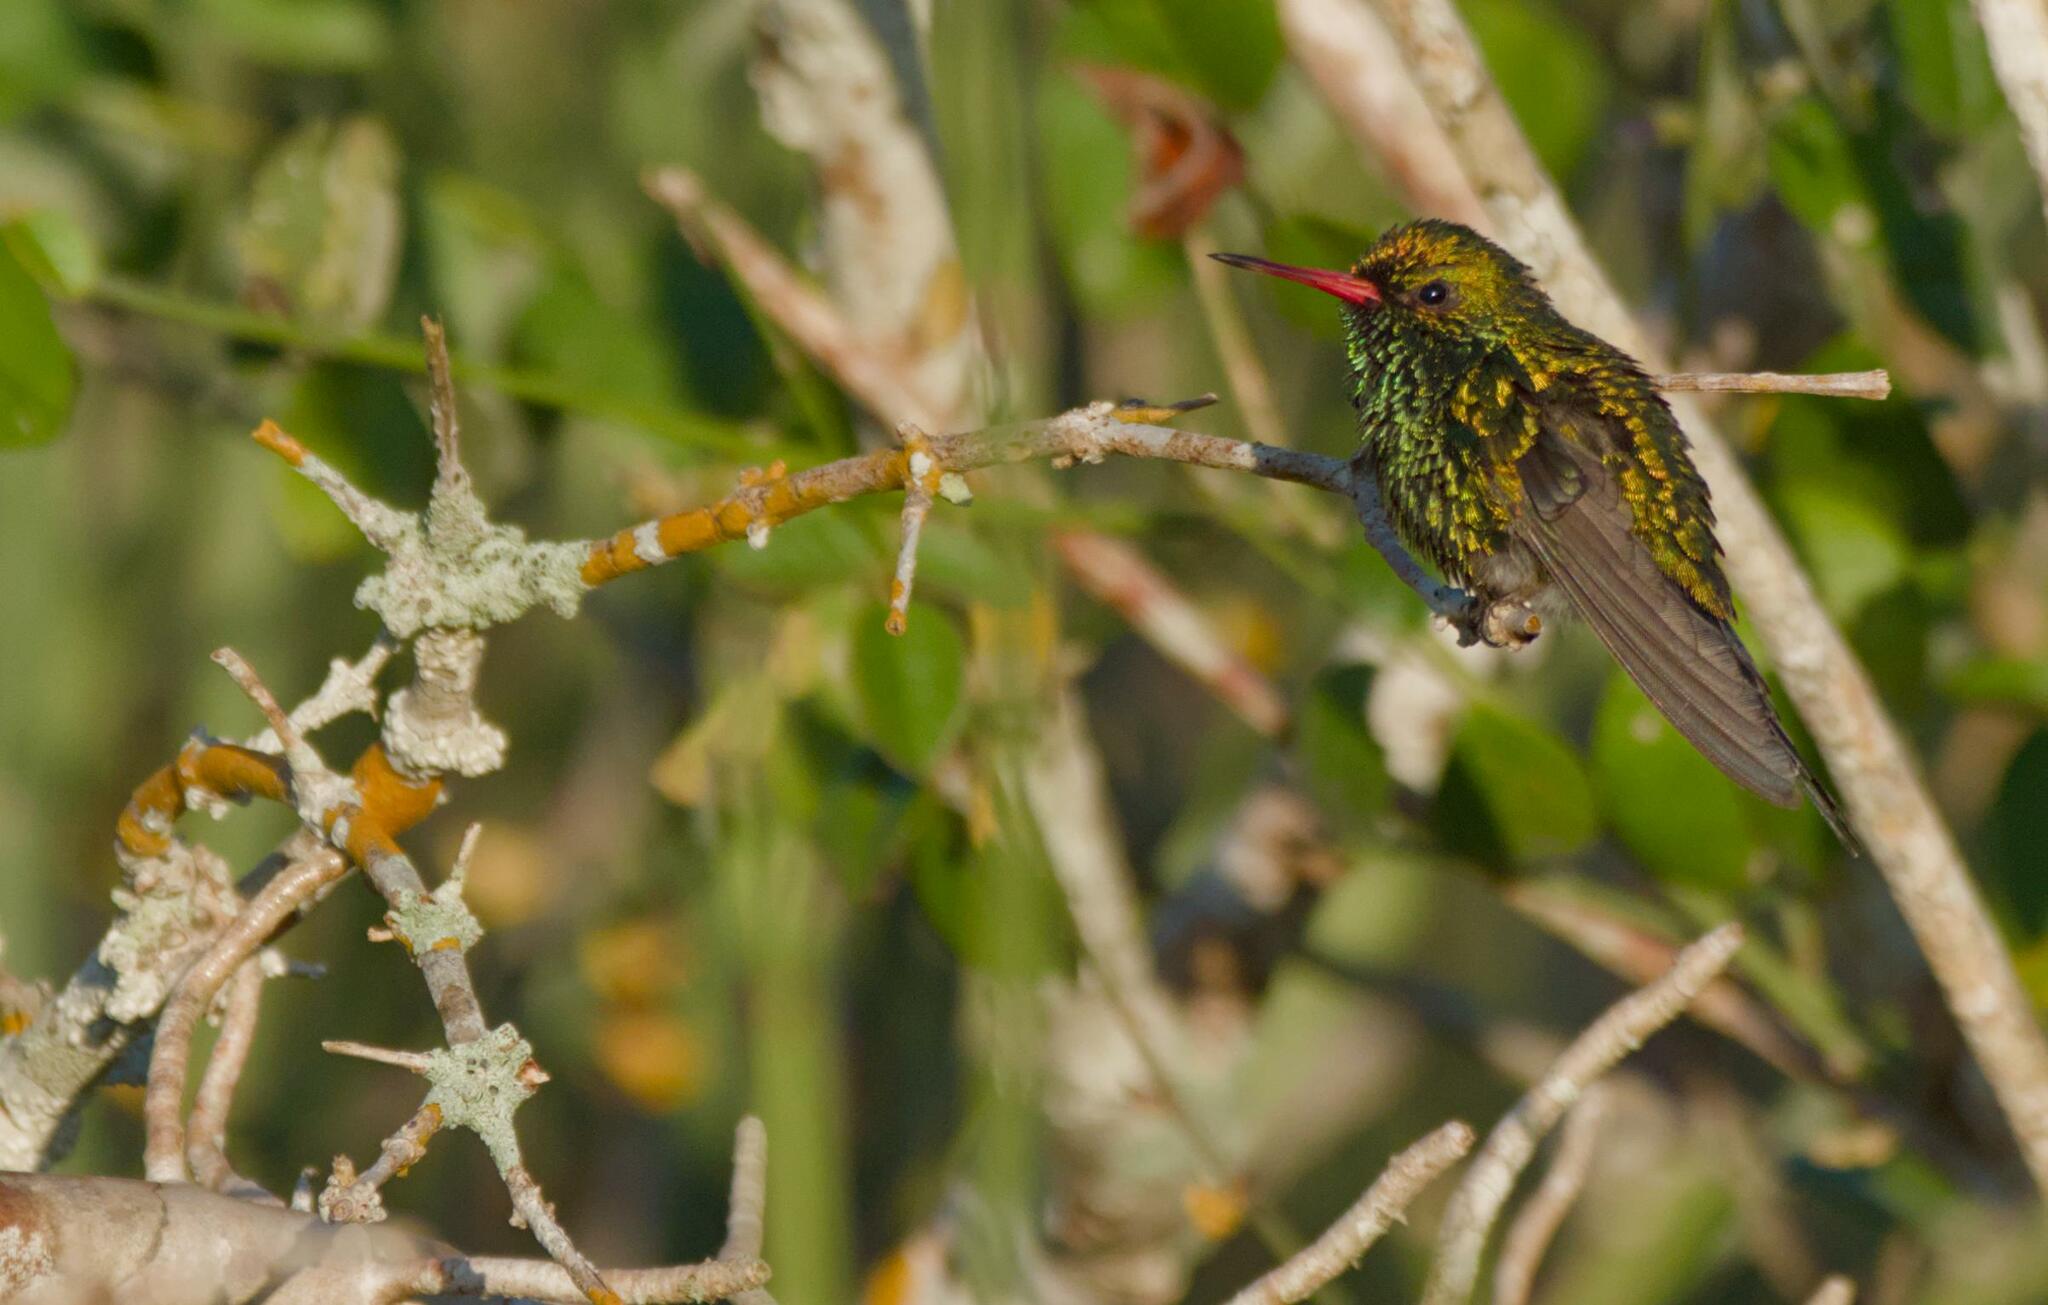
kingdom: Animalia
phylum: Chordata
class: Aves
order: Apodiformes
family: Trochilidae
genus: Cynanthus
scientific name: Cynanthus canivetii
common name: Canivet's emerald
